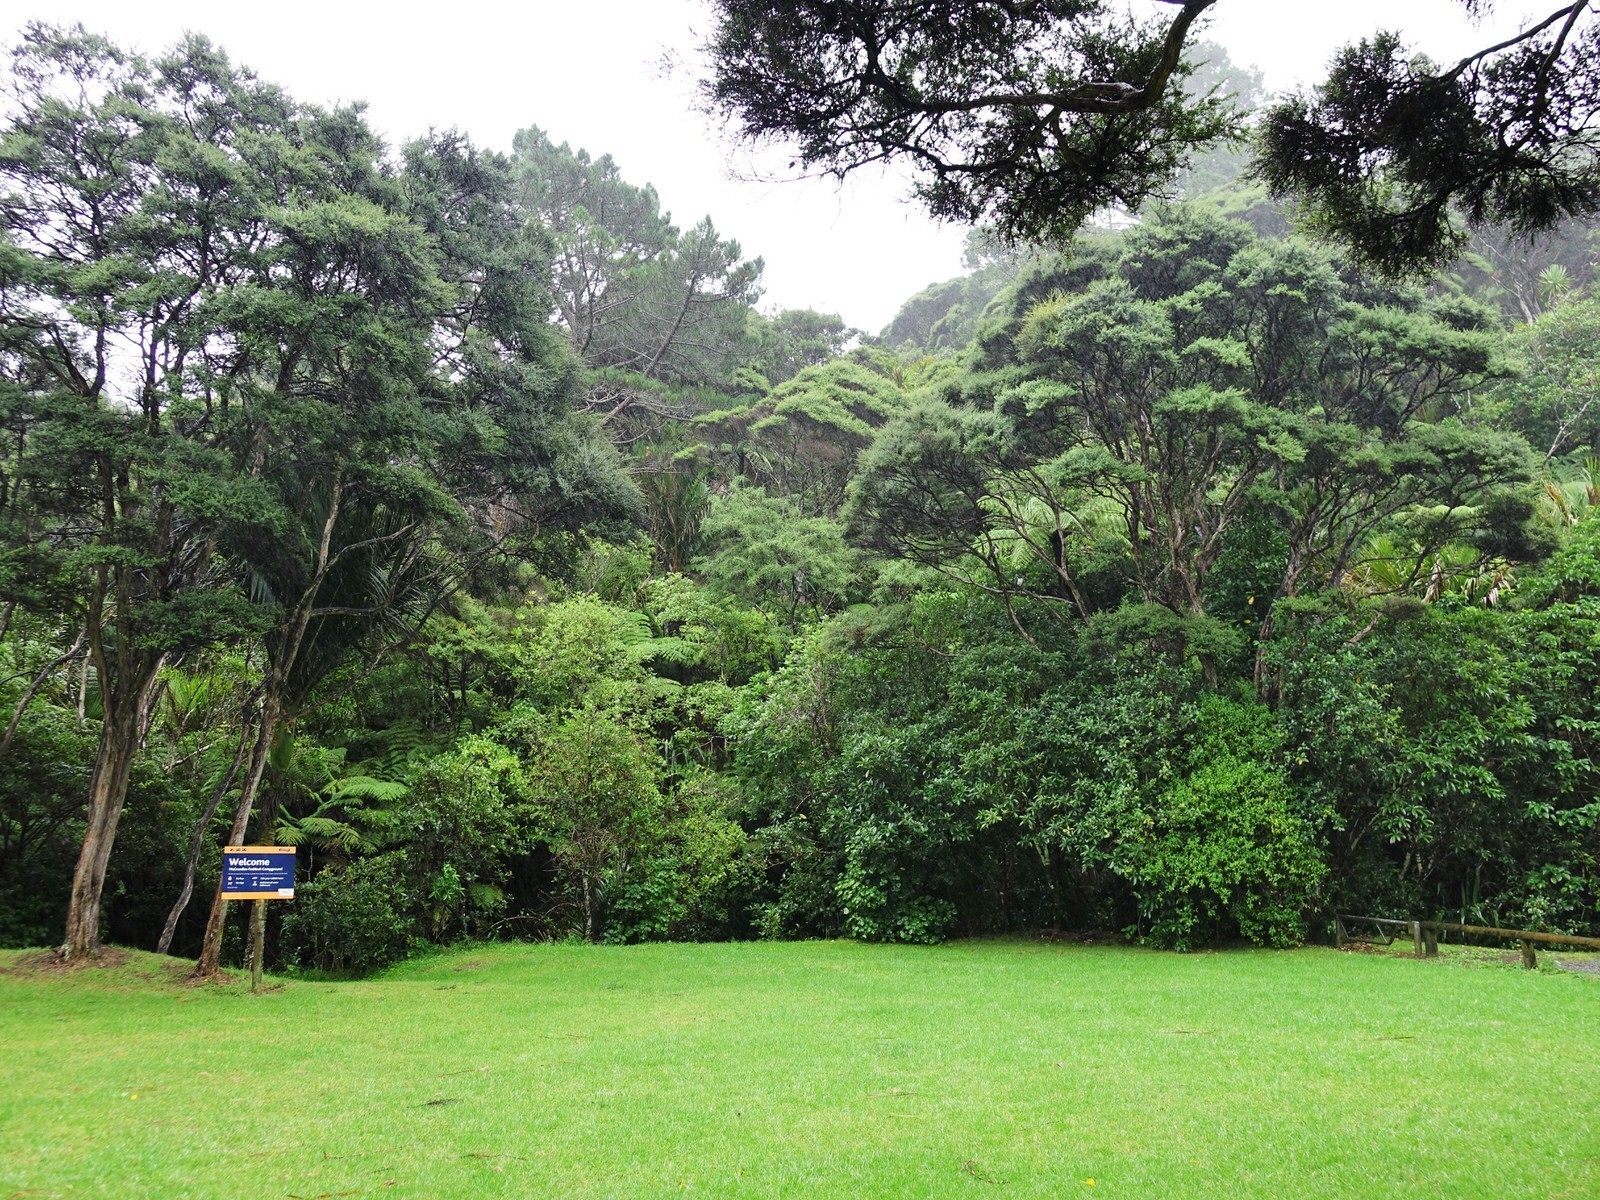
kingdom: Animalia
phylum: Chordata
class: Aves
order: Columbiformes
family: Columbidae
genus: Hemiphaga
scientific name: Hemiphaga novaeseelandiae
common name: New zealand pigeon
